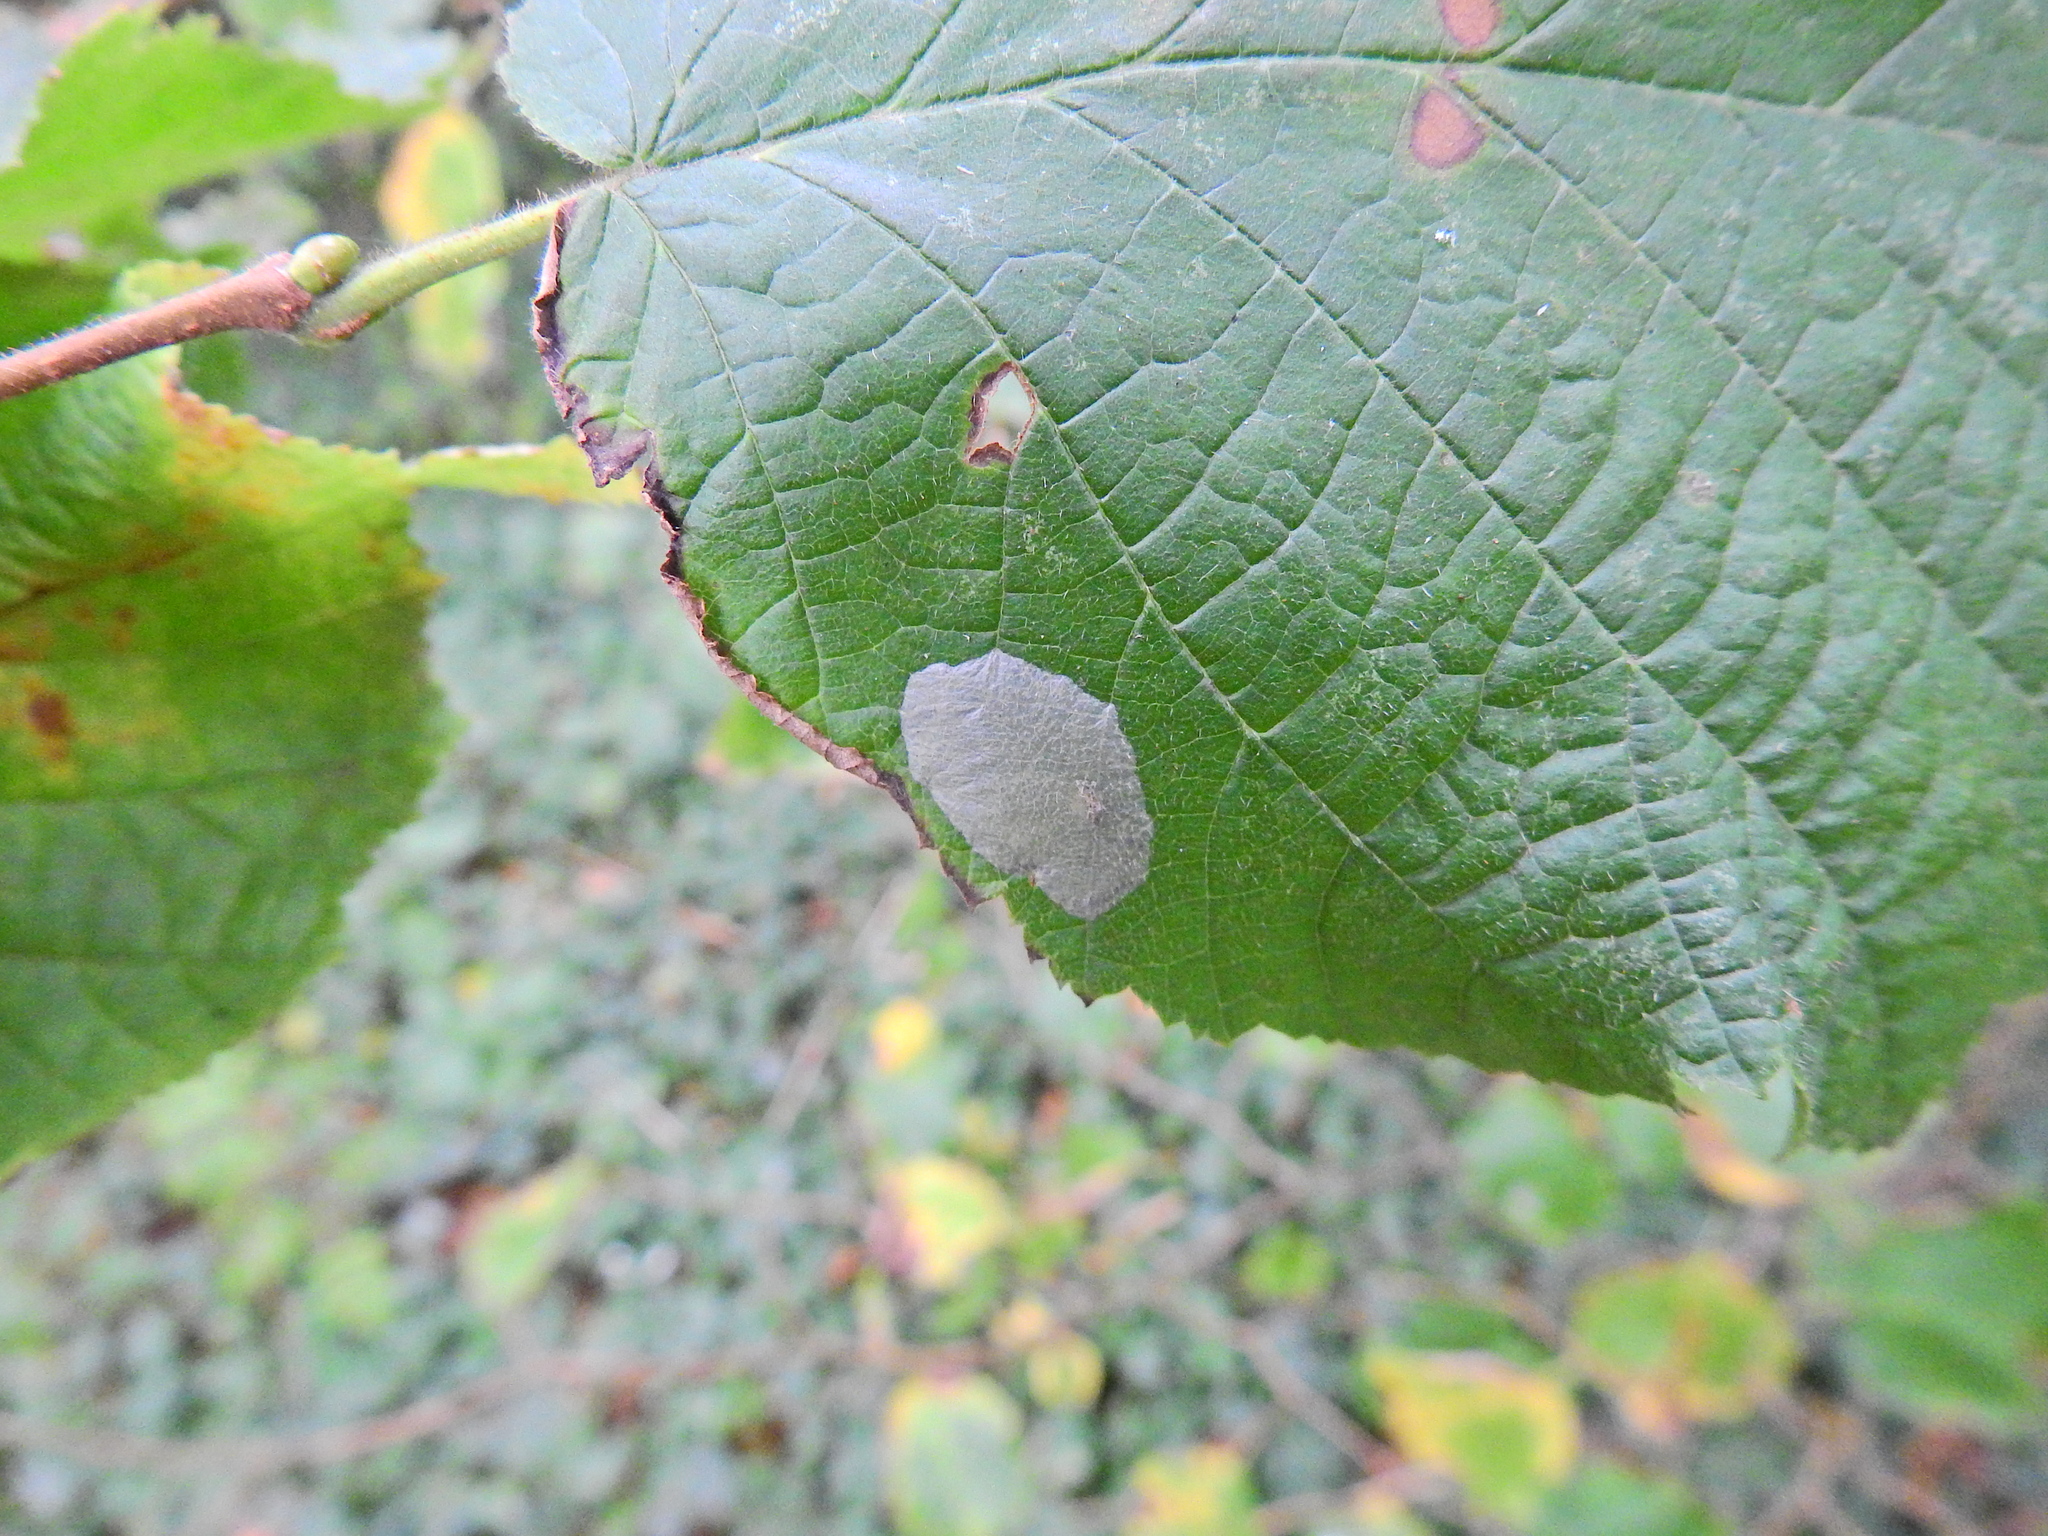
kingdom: Animalia
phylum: Arthropoda
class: Insecta
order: Lepidoptera
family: Gracillariidae
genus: Phyllonorycter
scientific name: Phyllonorycter coryli
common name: Nut-leaf blister moth
